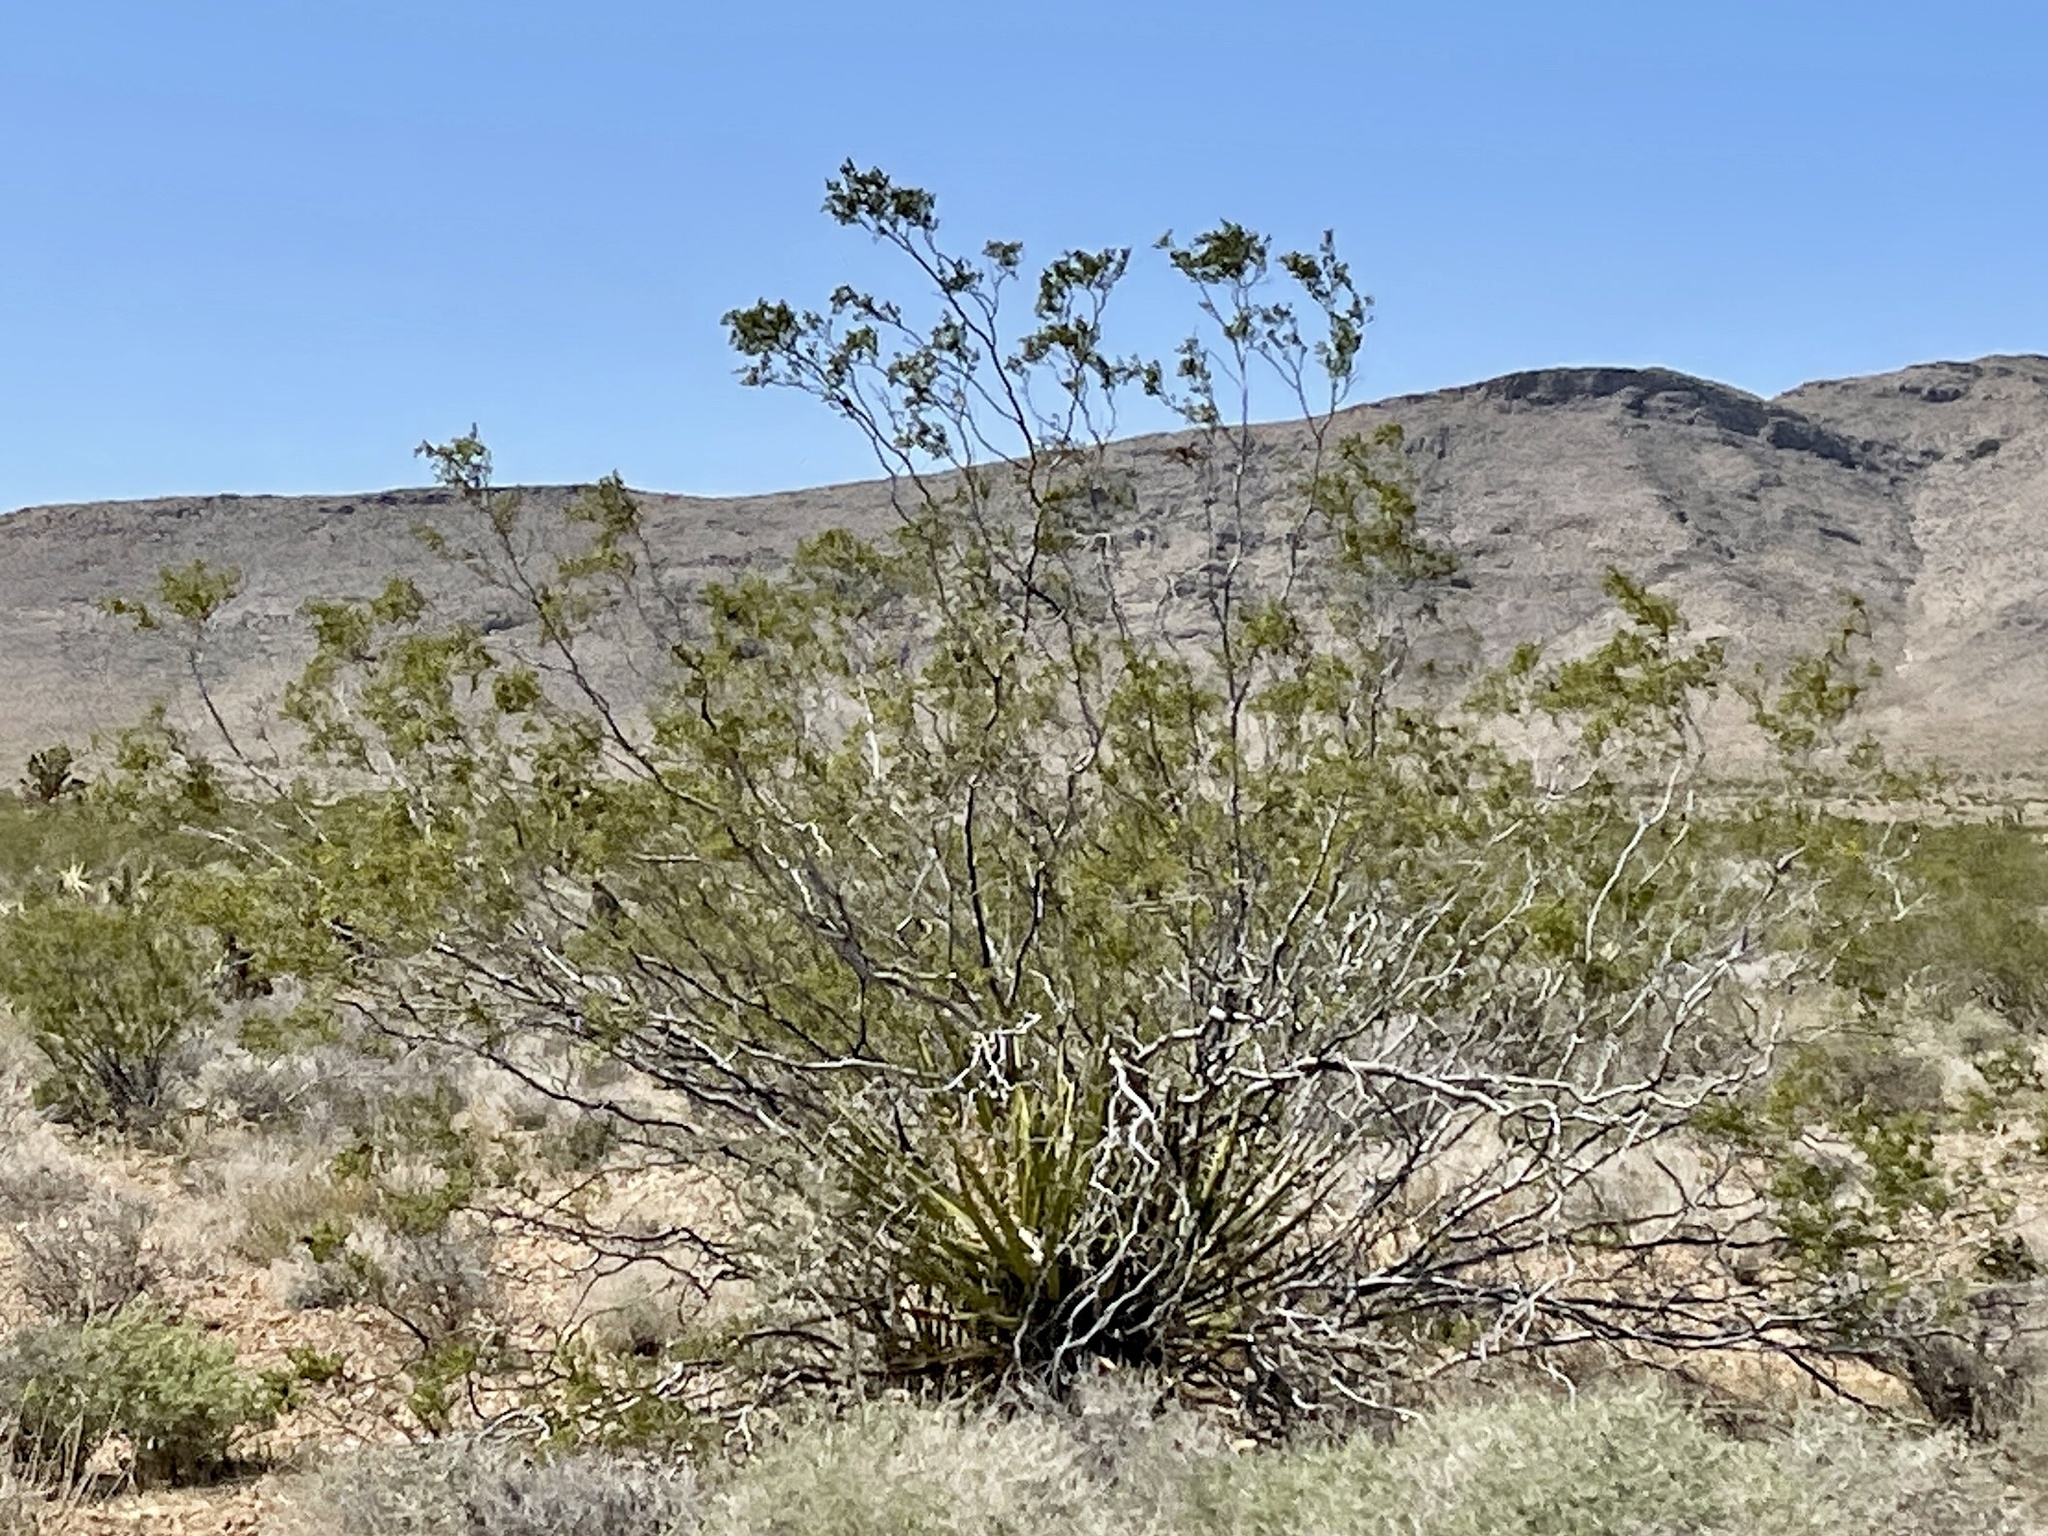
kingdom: Plantae
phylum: Tracheophyta
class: Magnoliopsida
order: Zygophyllales
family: Zygophyllaceae
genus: Larrea
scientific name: Larrea tridentata
